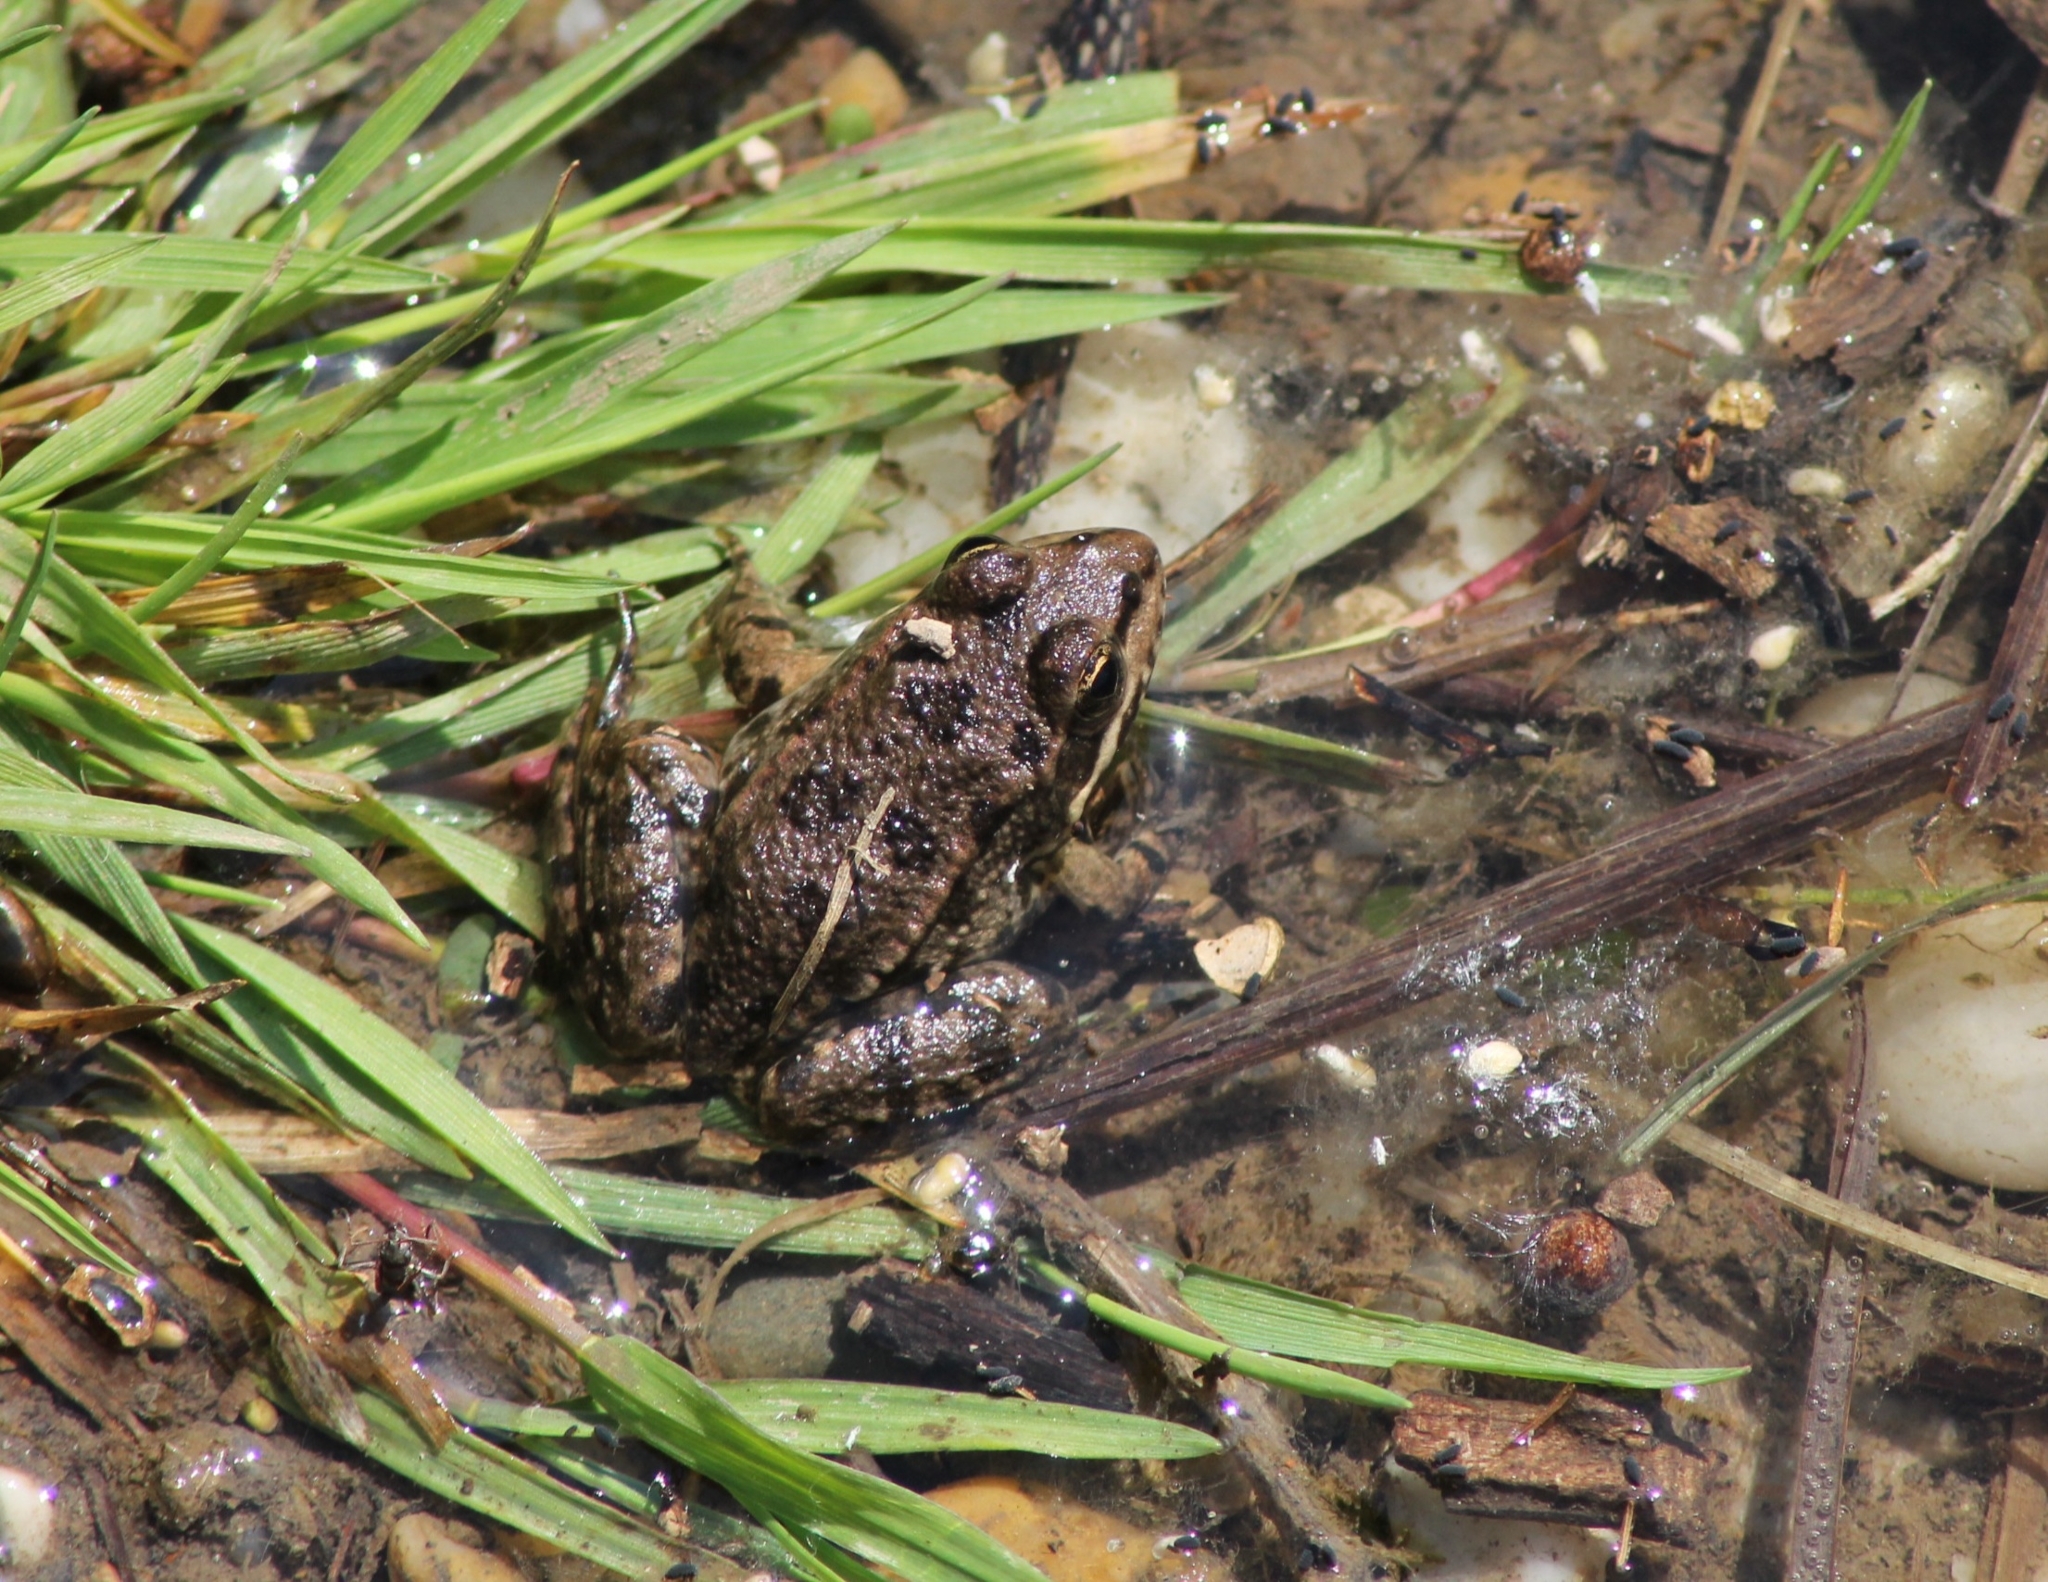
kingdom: Animalia
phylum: Chordata
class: Amphibia
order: Anura
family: Ranidae
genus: Pelophylax
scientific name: Pelophylax
